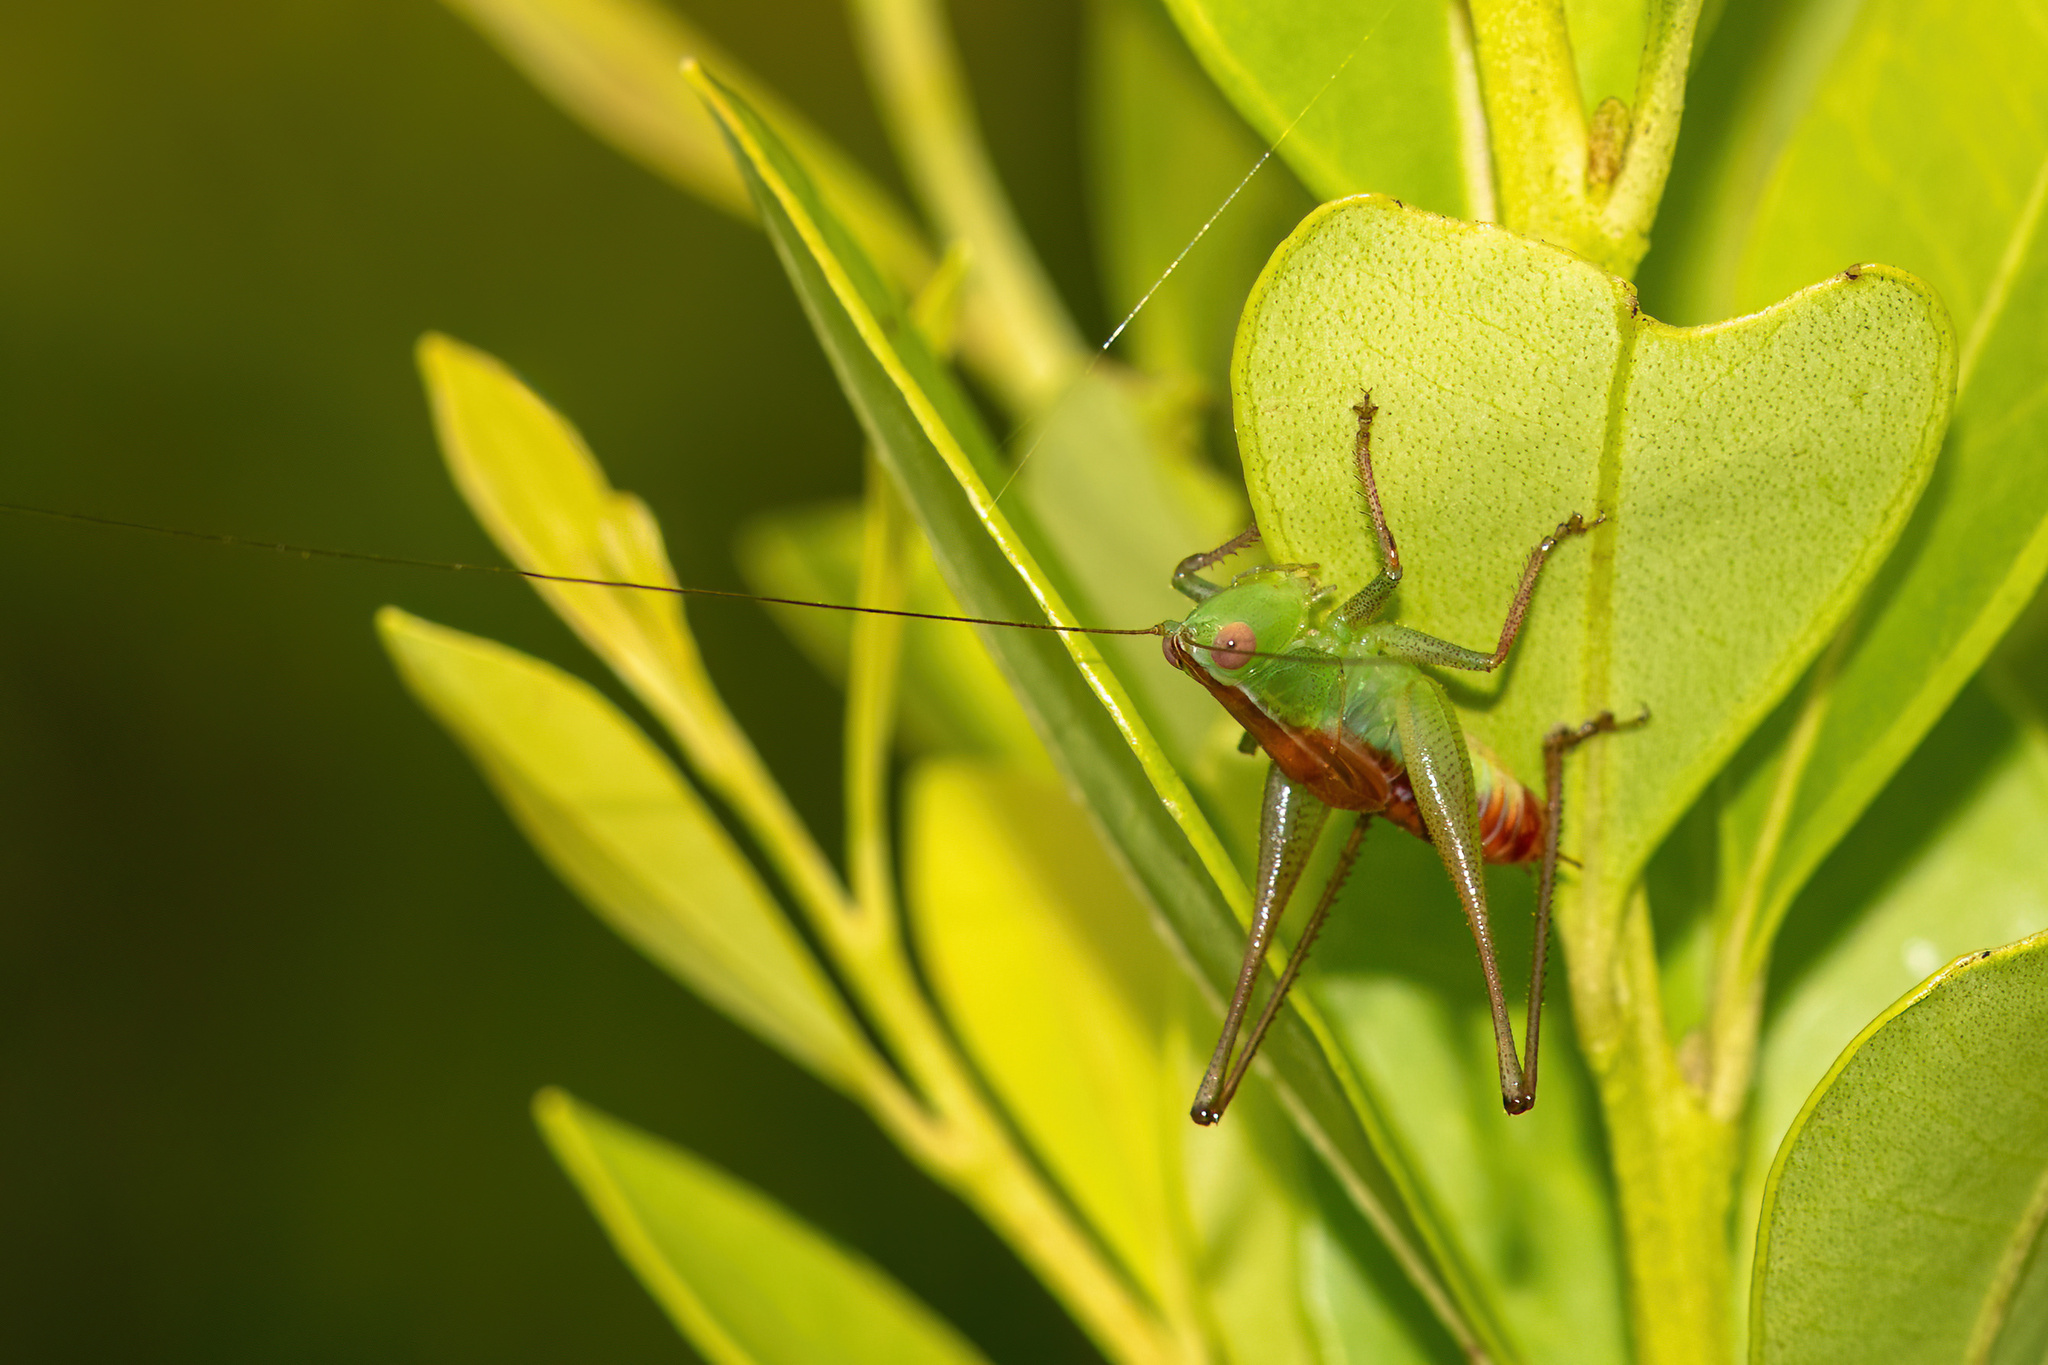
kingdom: Animalia
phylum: Arthropoda
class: Insecta
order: Orthoptera
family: Tettigoniidae
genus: Odontoxiphidium
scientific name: Odontoxiphidium apterum
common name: Wingless meadow katydid
